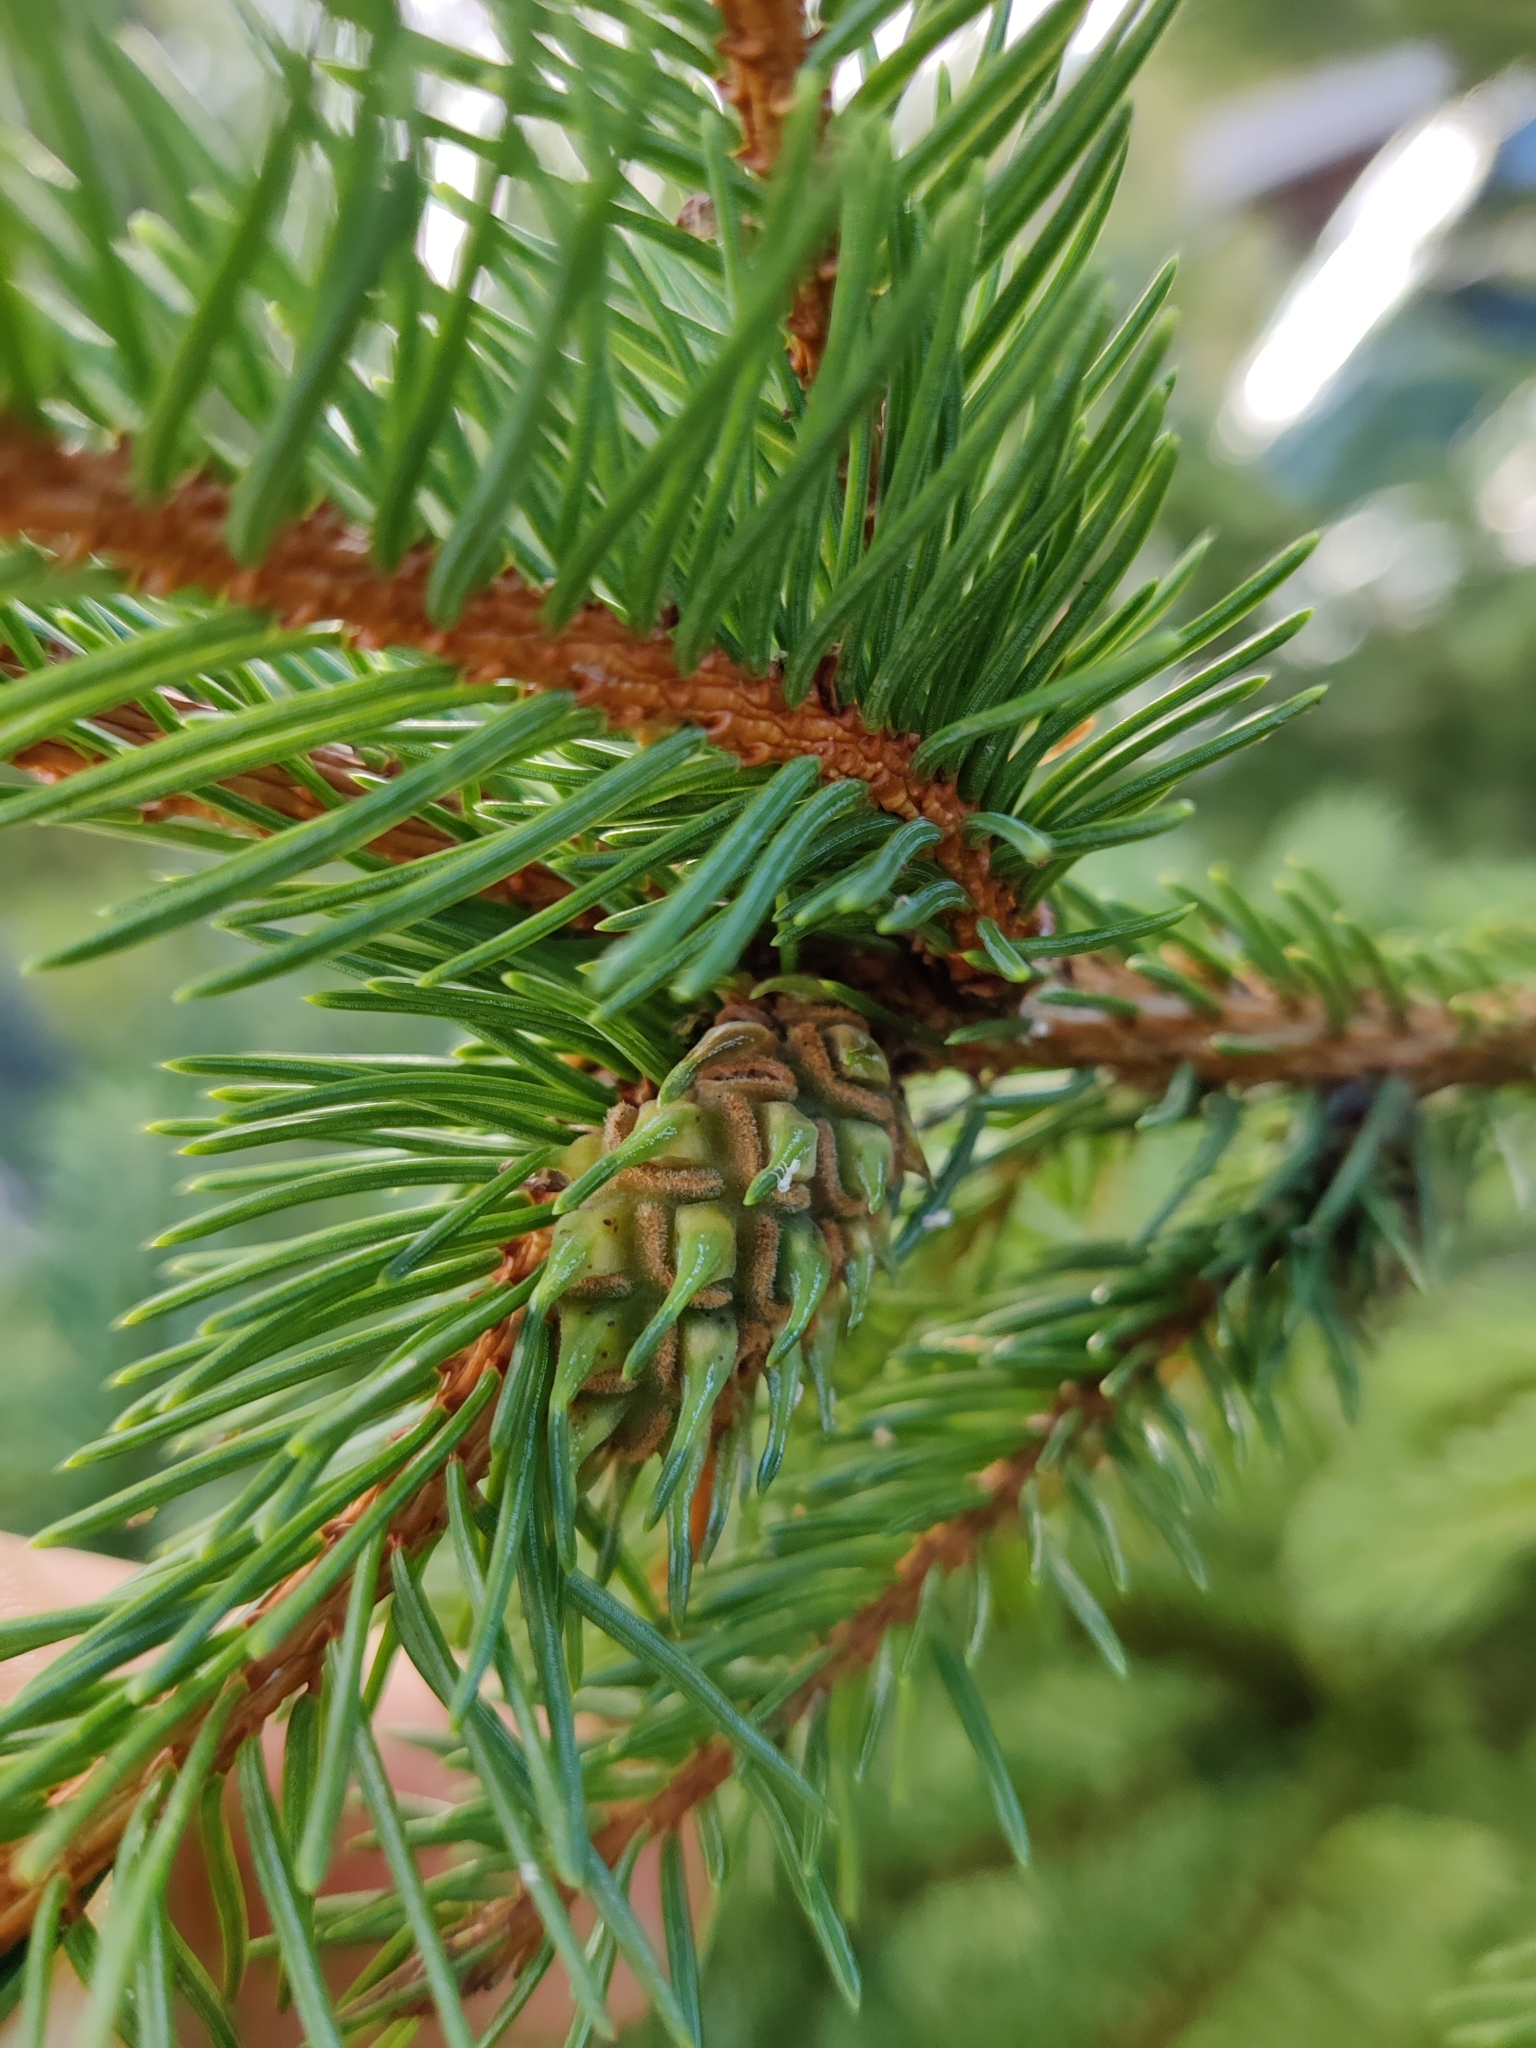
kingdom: Animalia
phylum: Arthropoda
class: Insecta
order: Hemiptera
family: Adelgidae
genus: Adelges
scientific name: Adelges abietis
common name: Eastern spruce gall adelgid
